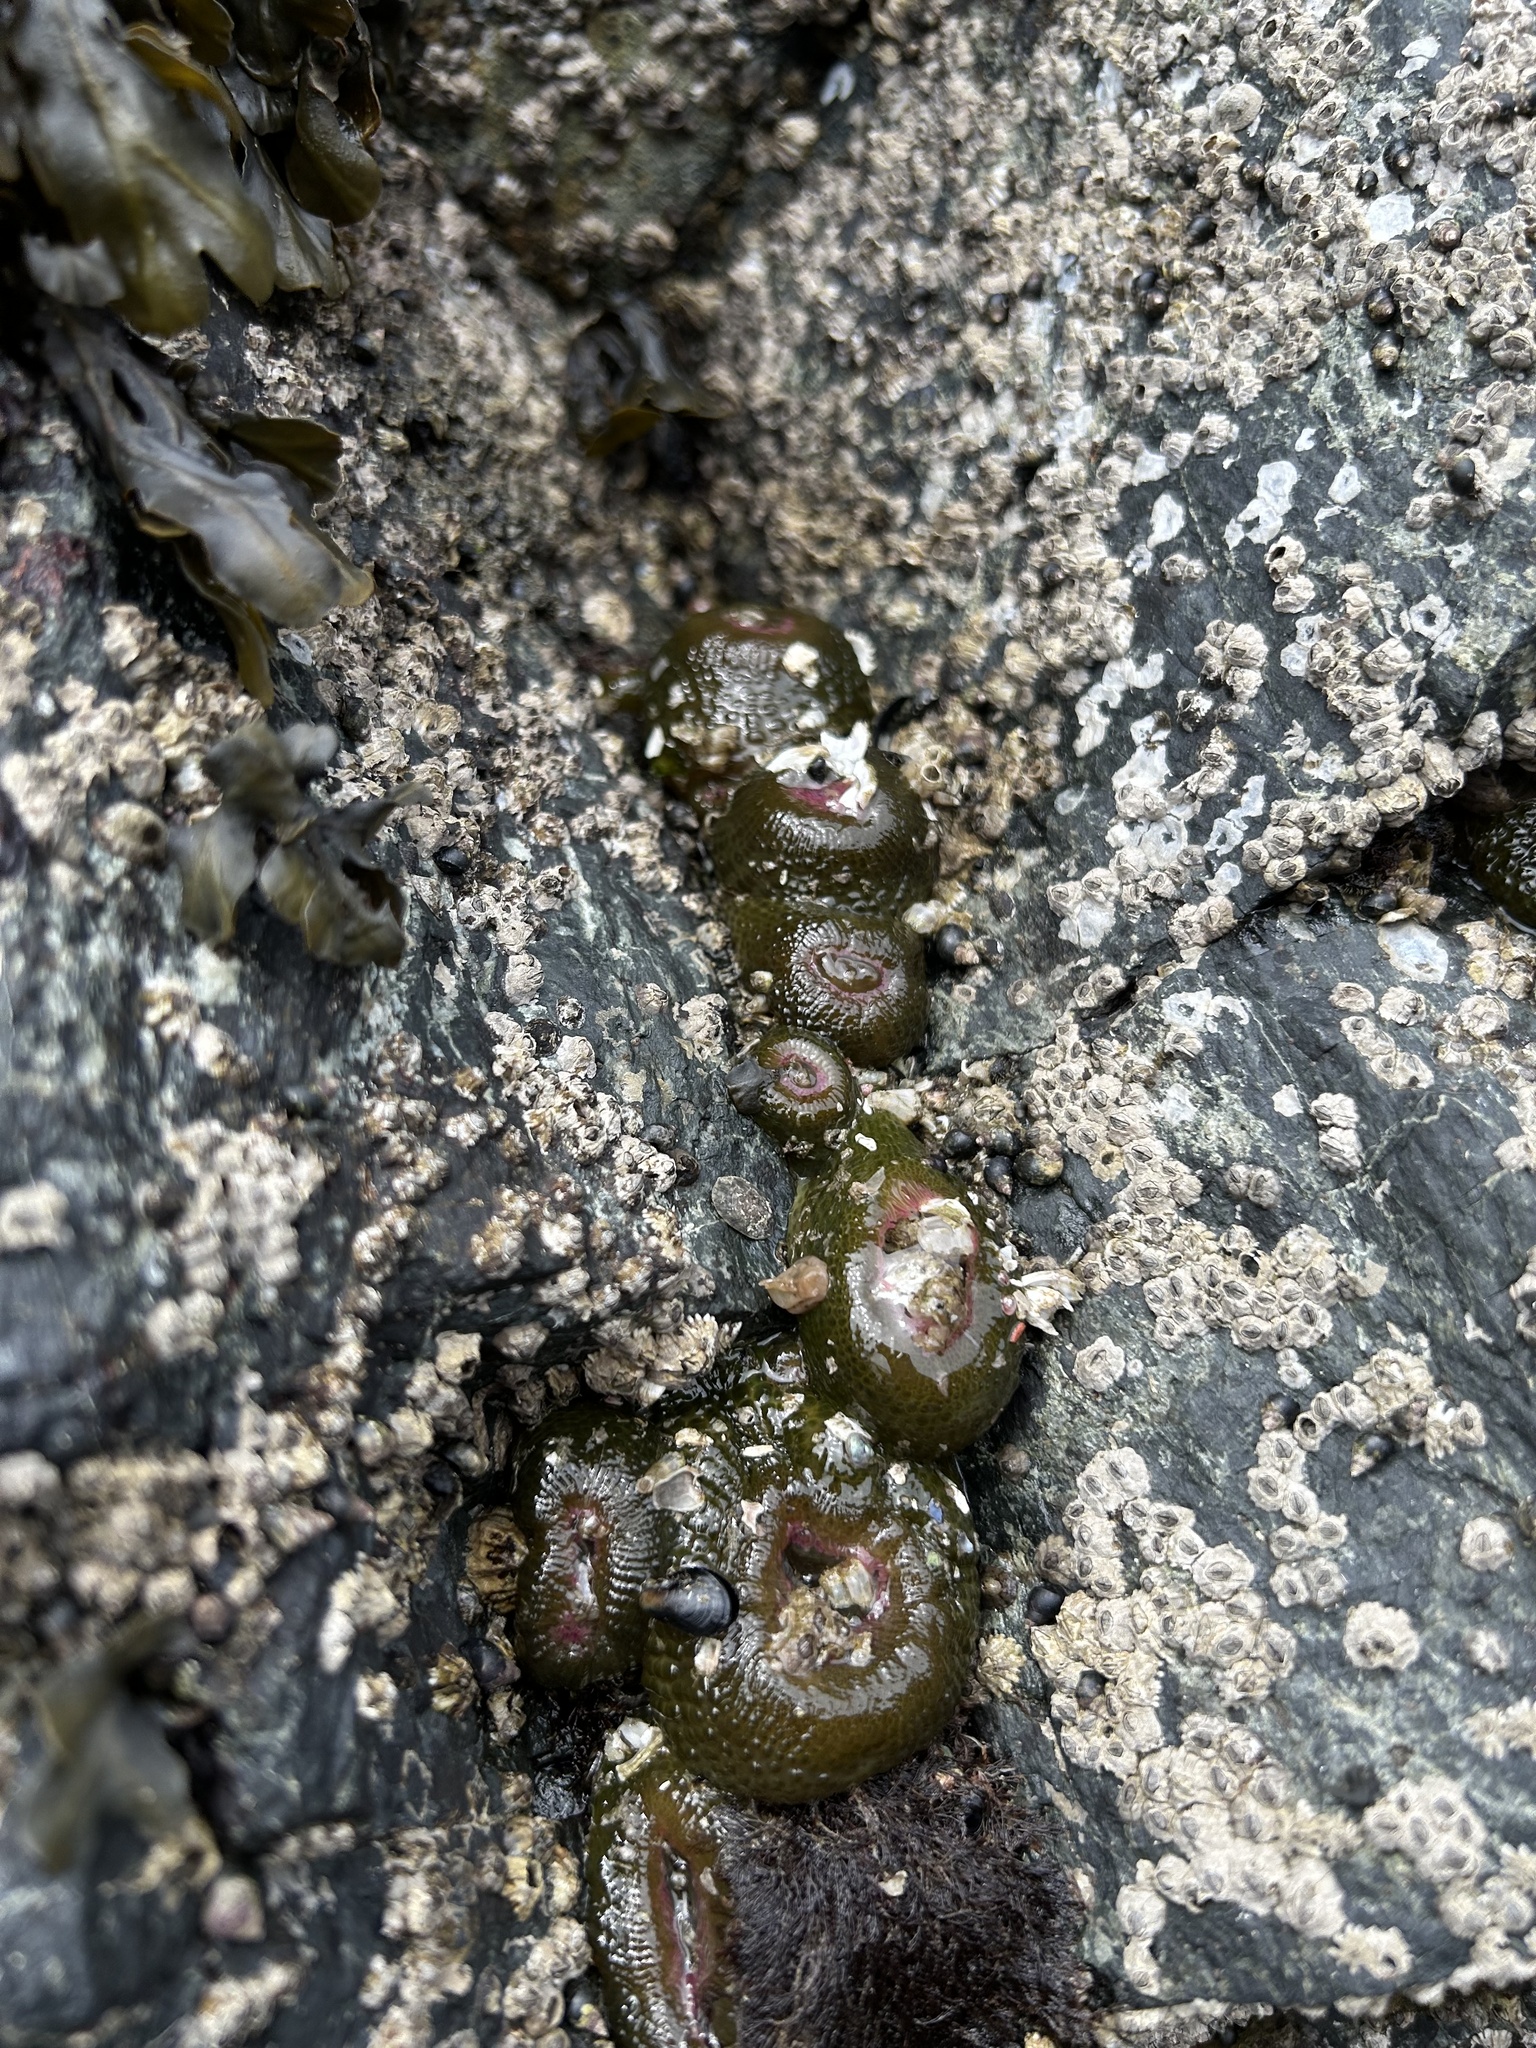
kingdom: Animalia
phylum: Cnidaria
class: Anthozoa
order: Actiniaria
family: Actiniidae
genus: Anthopleura
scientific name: Anthopleura elegantissima
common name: Clonal anemone
